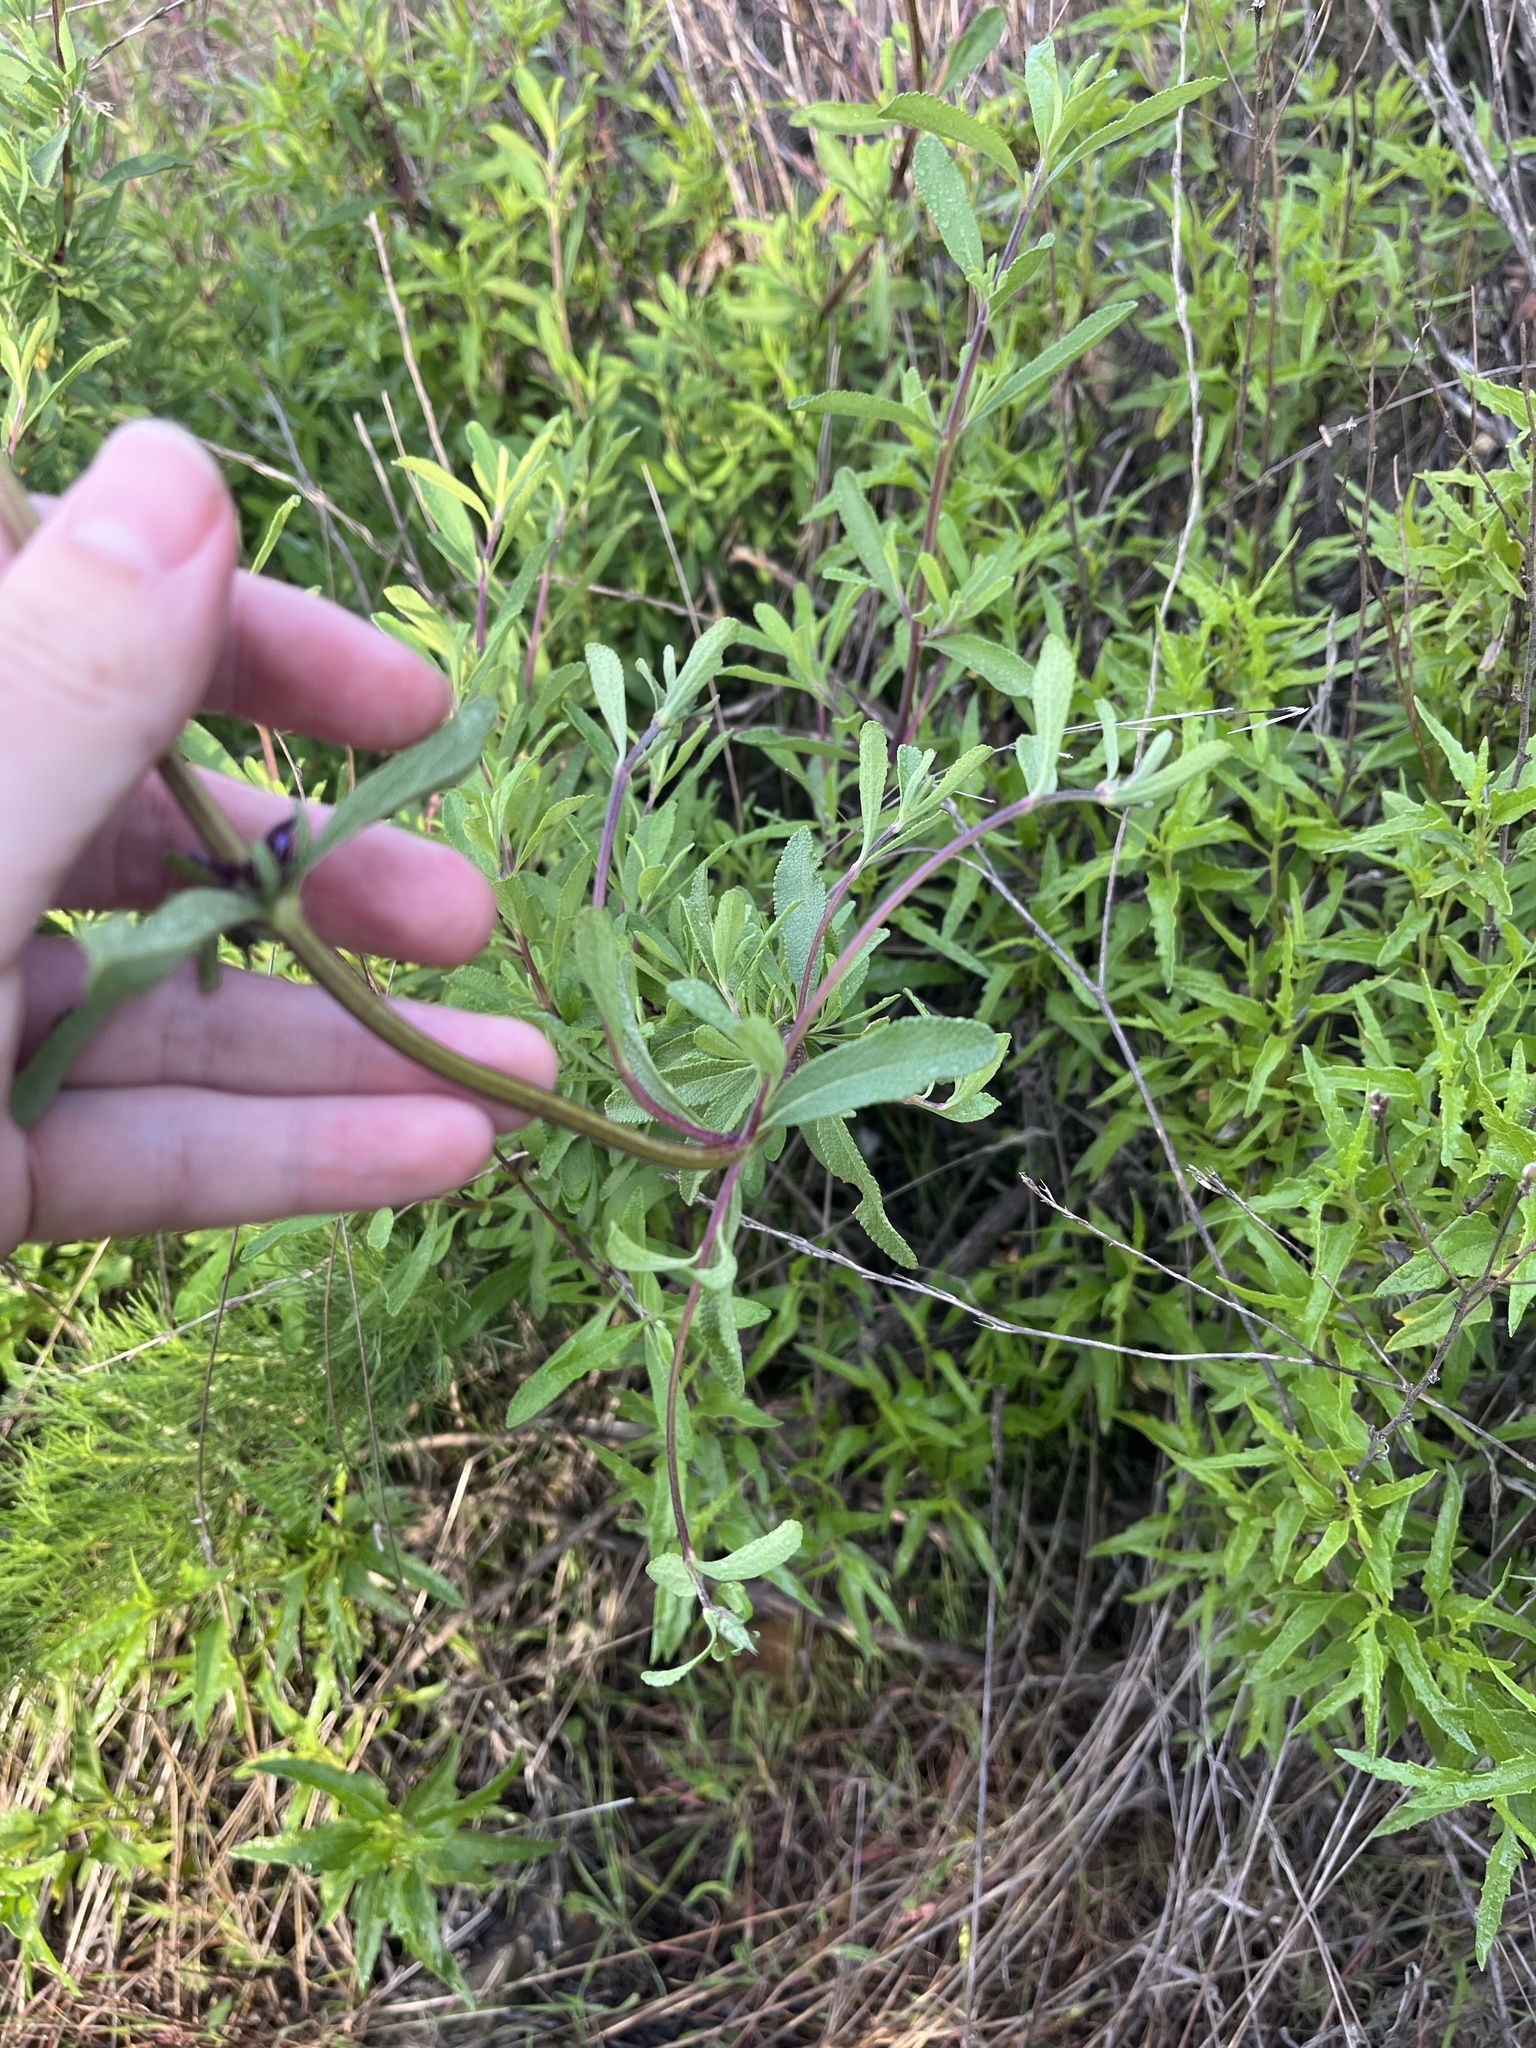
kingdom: Plantae
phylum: Tracheophyta
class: Magnoliopsida
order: Lamiales
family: Lamiaceae
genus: Salvia
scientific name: Salvia munzii
